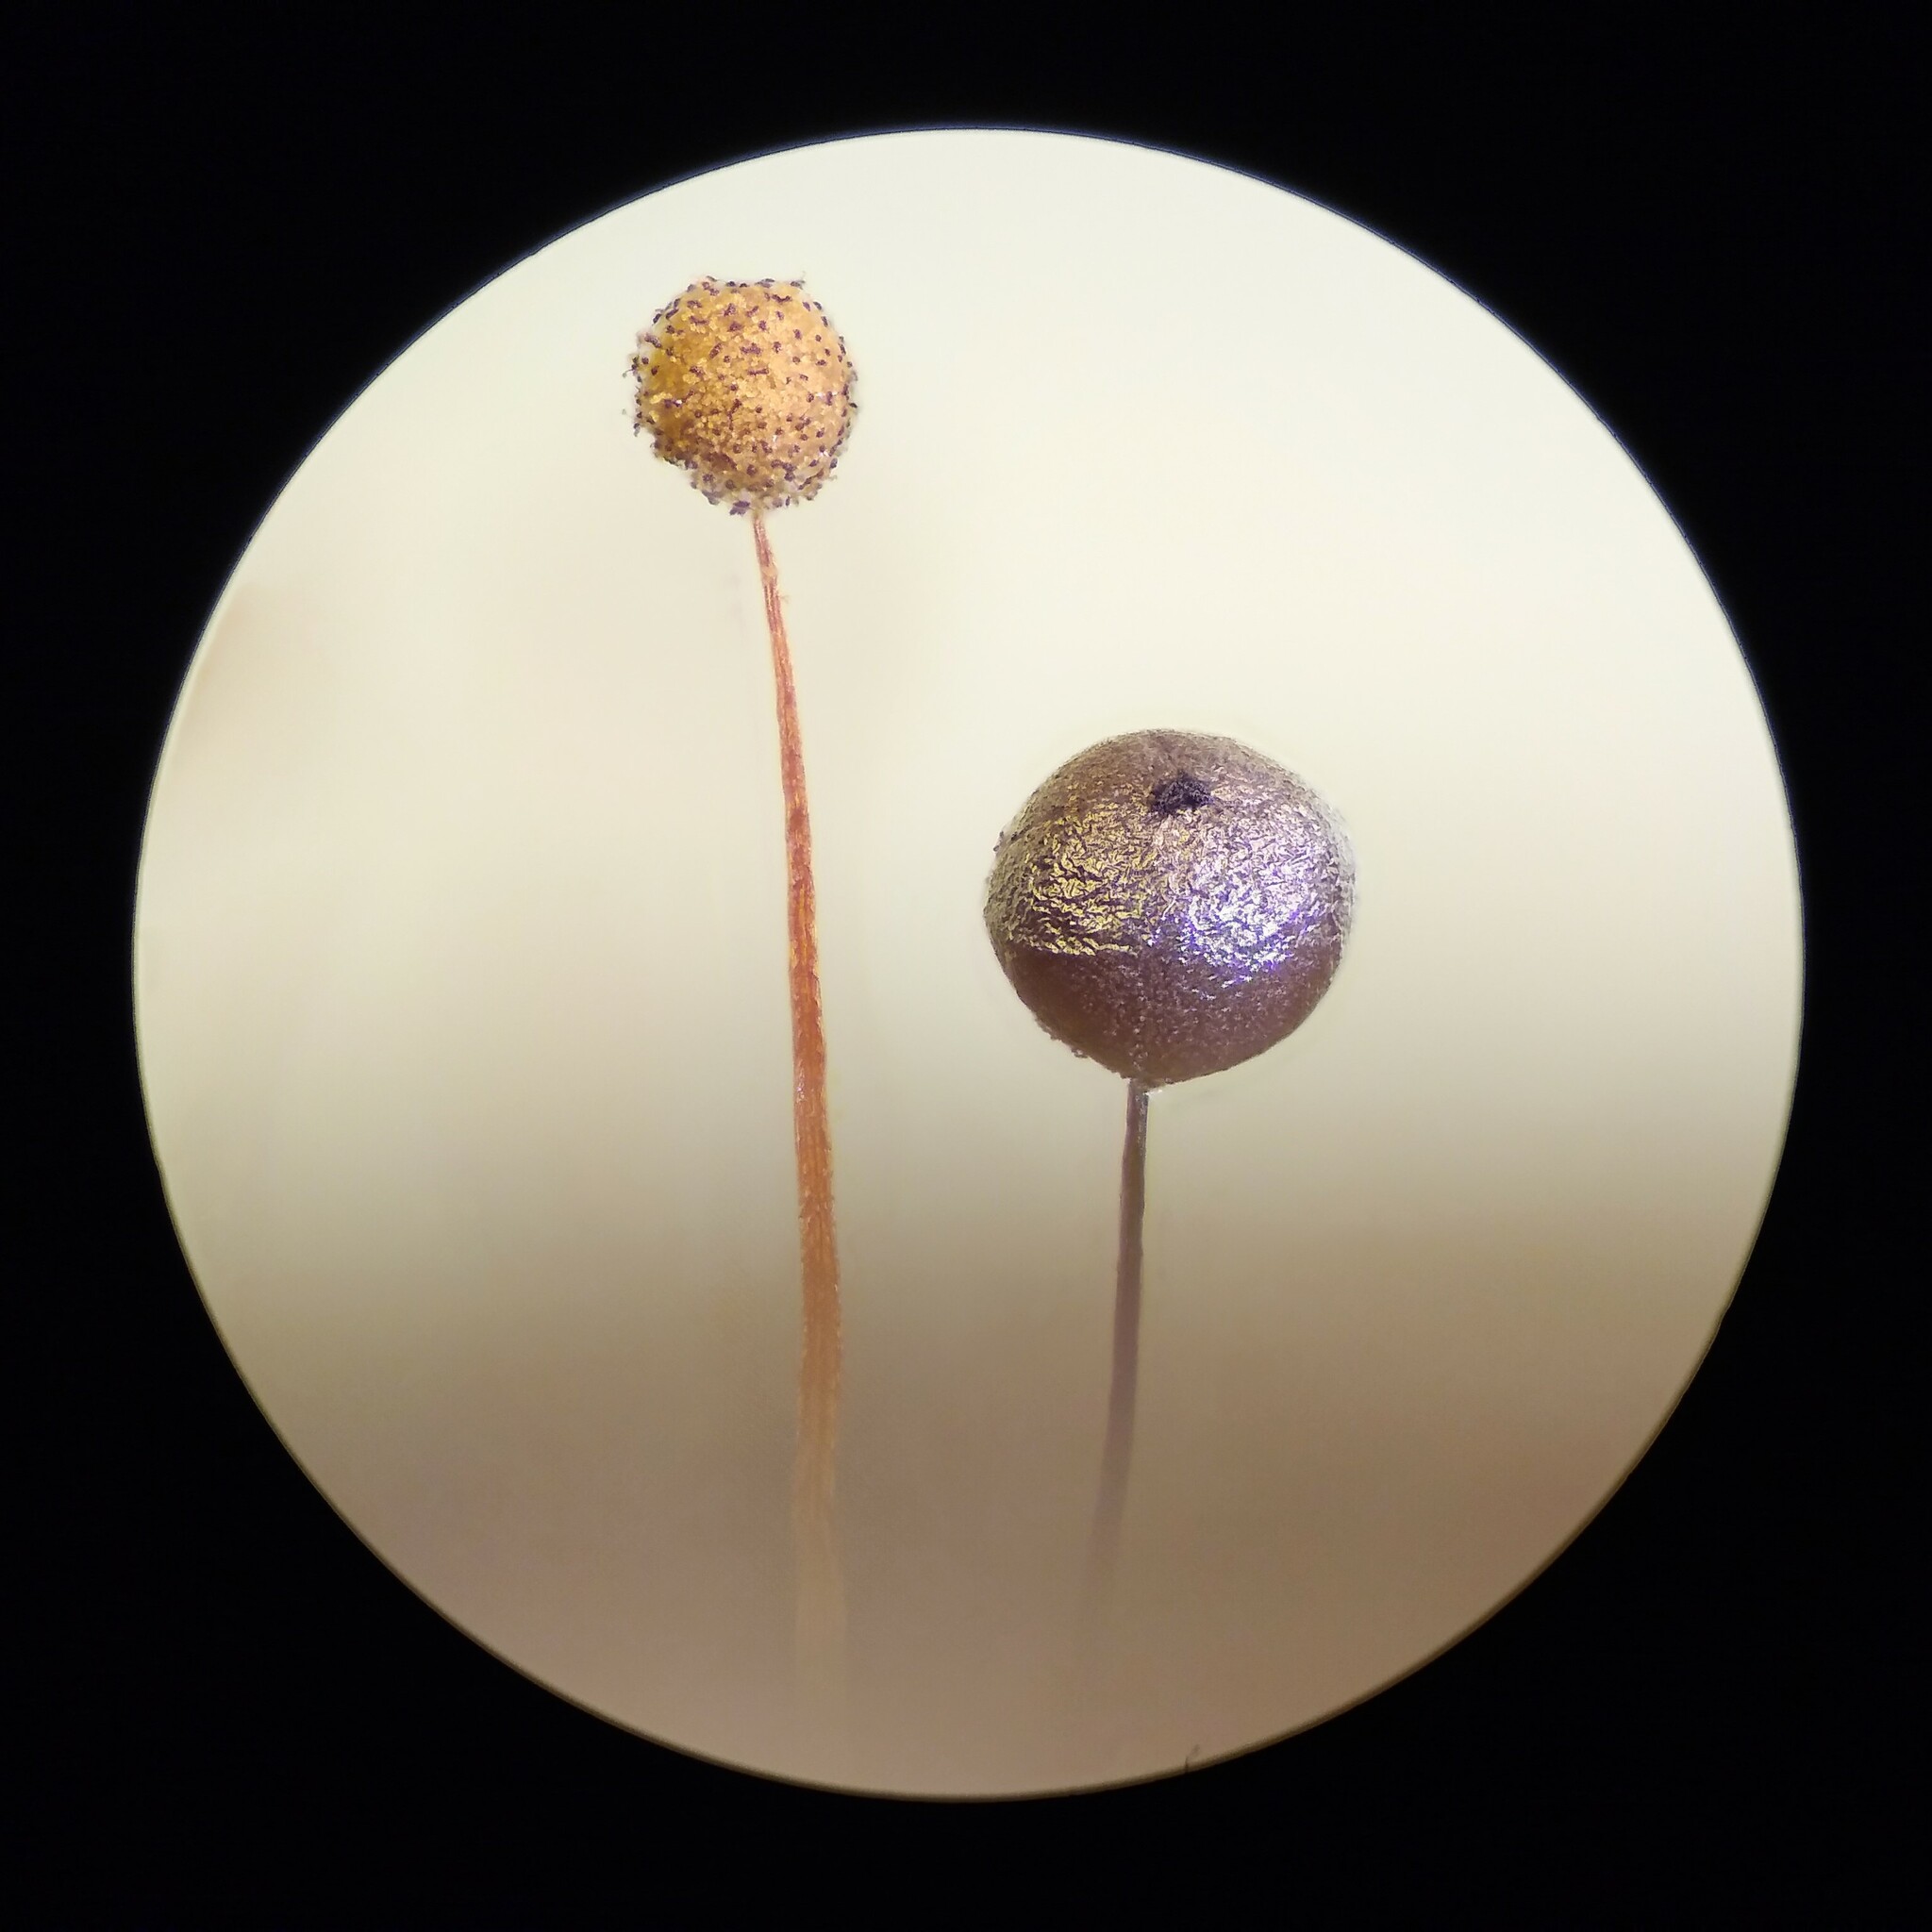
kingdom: Protozoa
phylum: Mycetozoa
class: Myxomycetes
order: Stemonitidales
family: Stemonitidaceae
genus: Collaria
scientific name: Collaria arcyrionema
